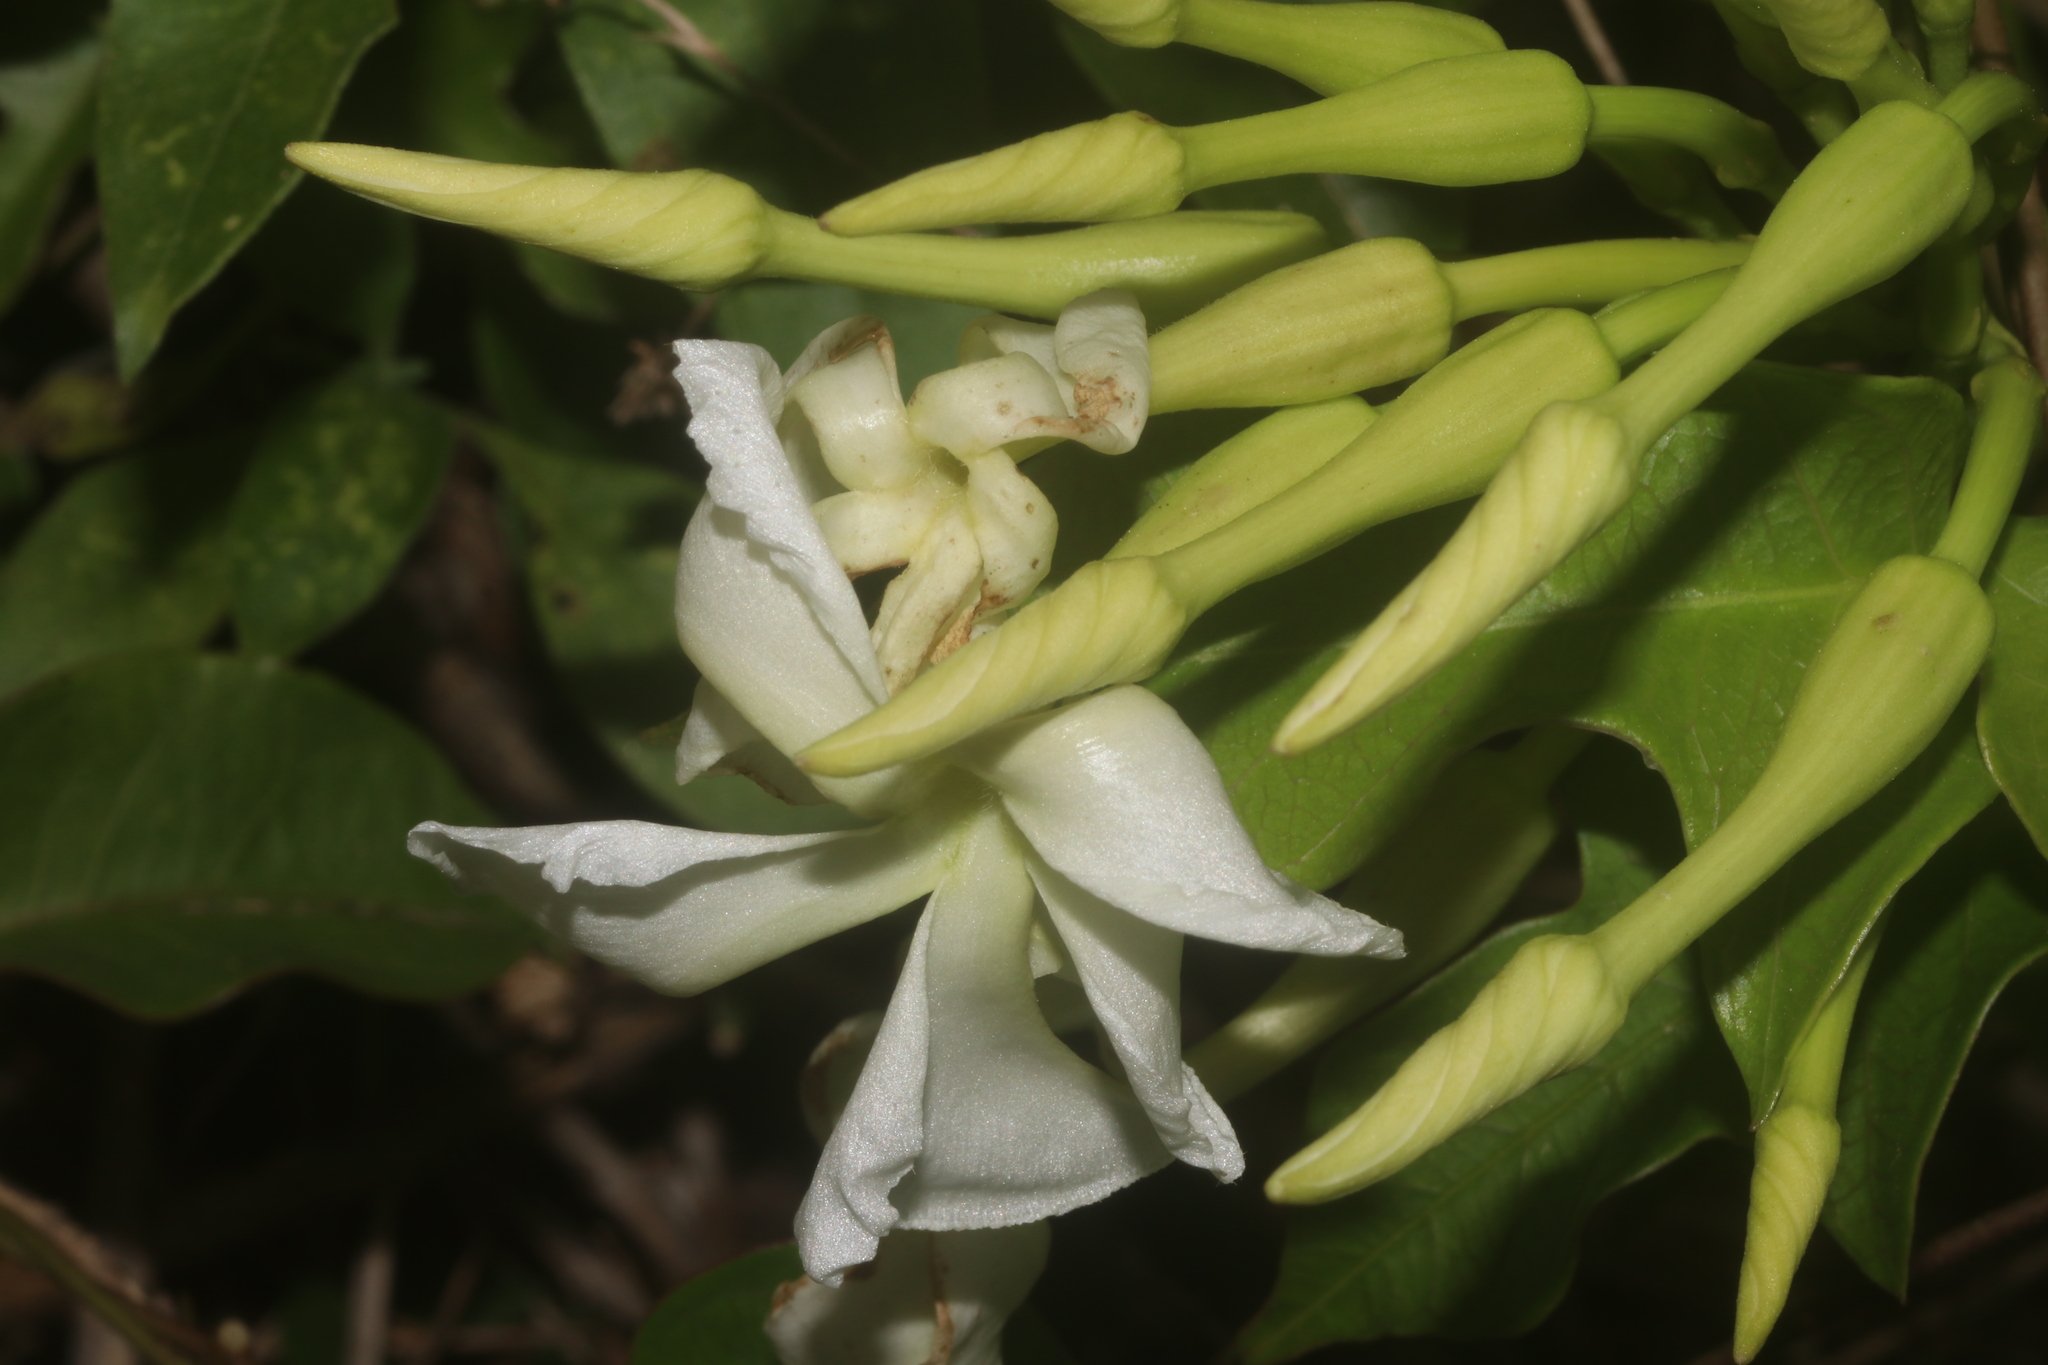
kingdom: Plantae
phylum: Tracheophyta
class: Magnoliopsida
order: Gentianales
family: Apocynaceae
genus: Echites
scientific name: Echites yucatanensis
